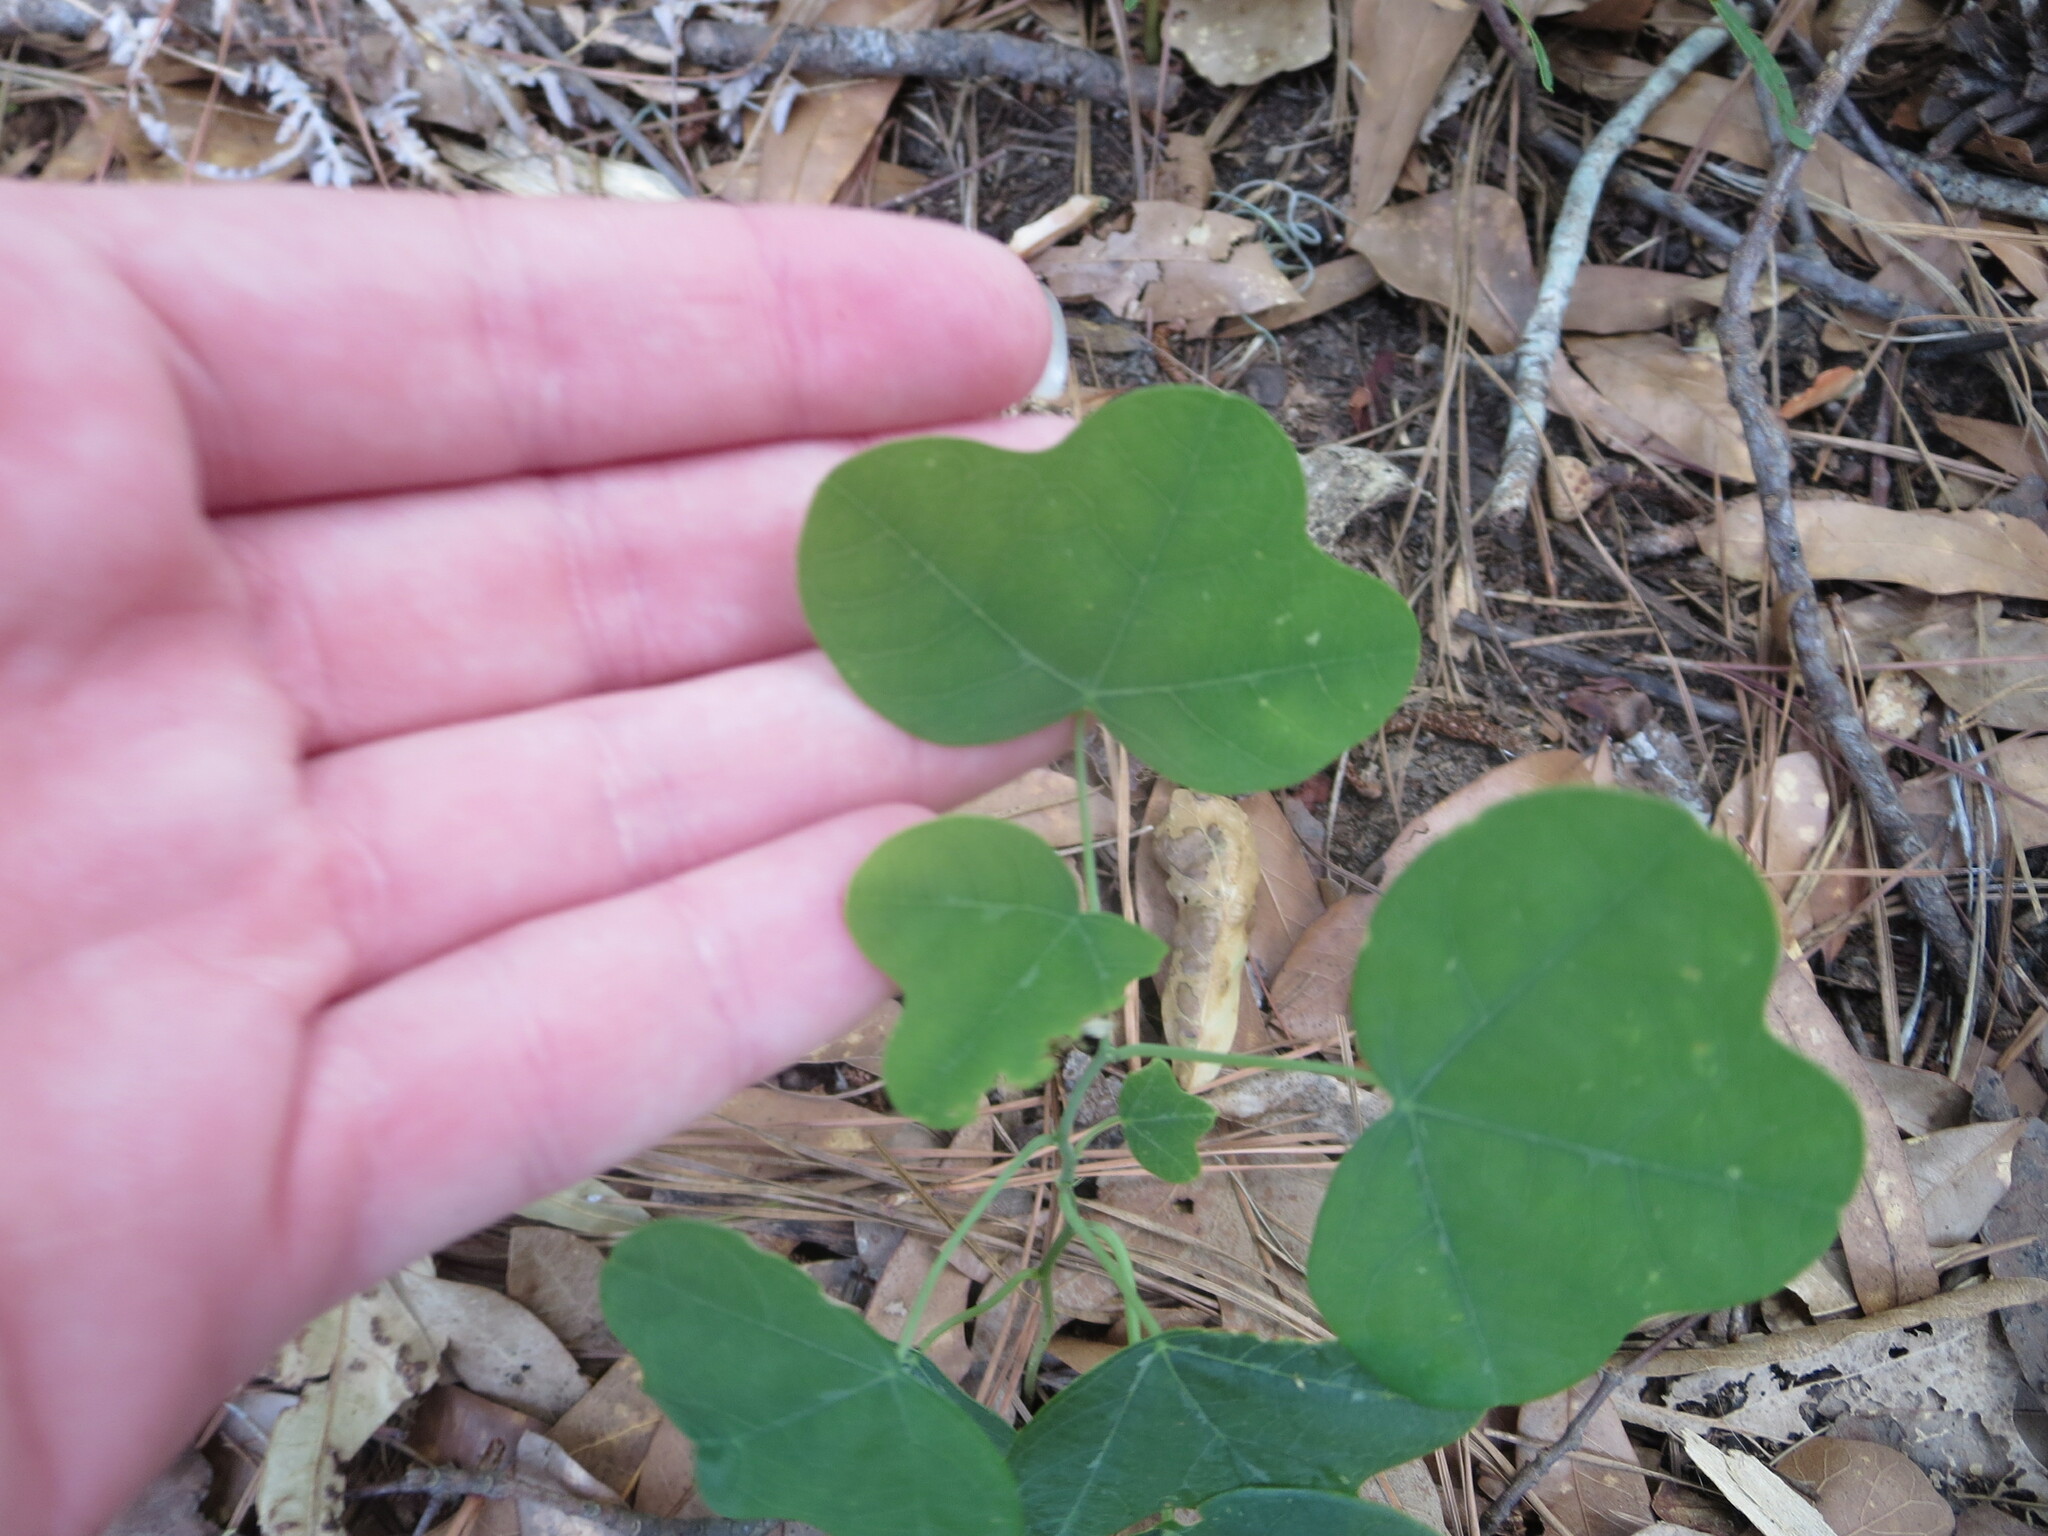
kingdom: Plantae
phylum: Tracheophyta
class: Magnoliopsida
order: Malpighiales
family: Passifloraceae
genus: Passiflora
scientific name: Passiflora lutea
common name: Yellow passionflower
